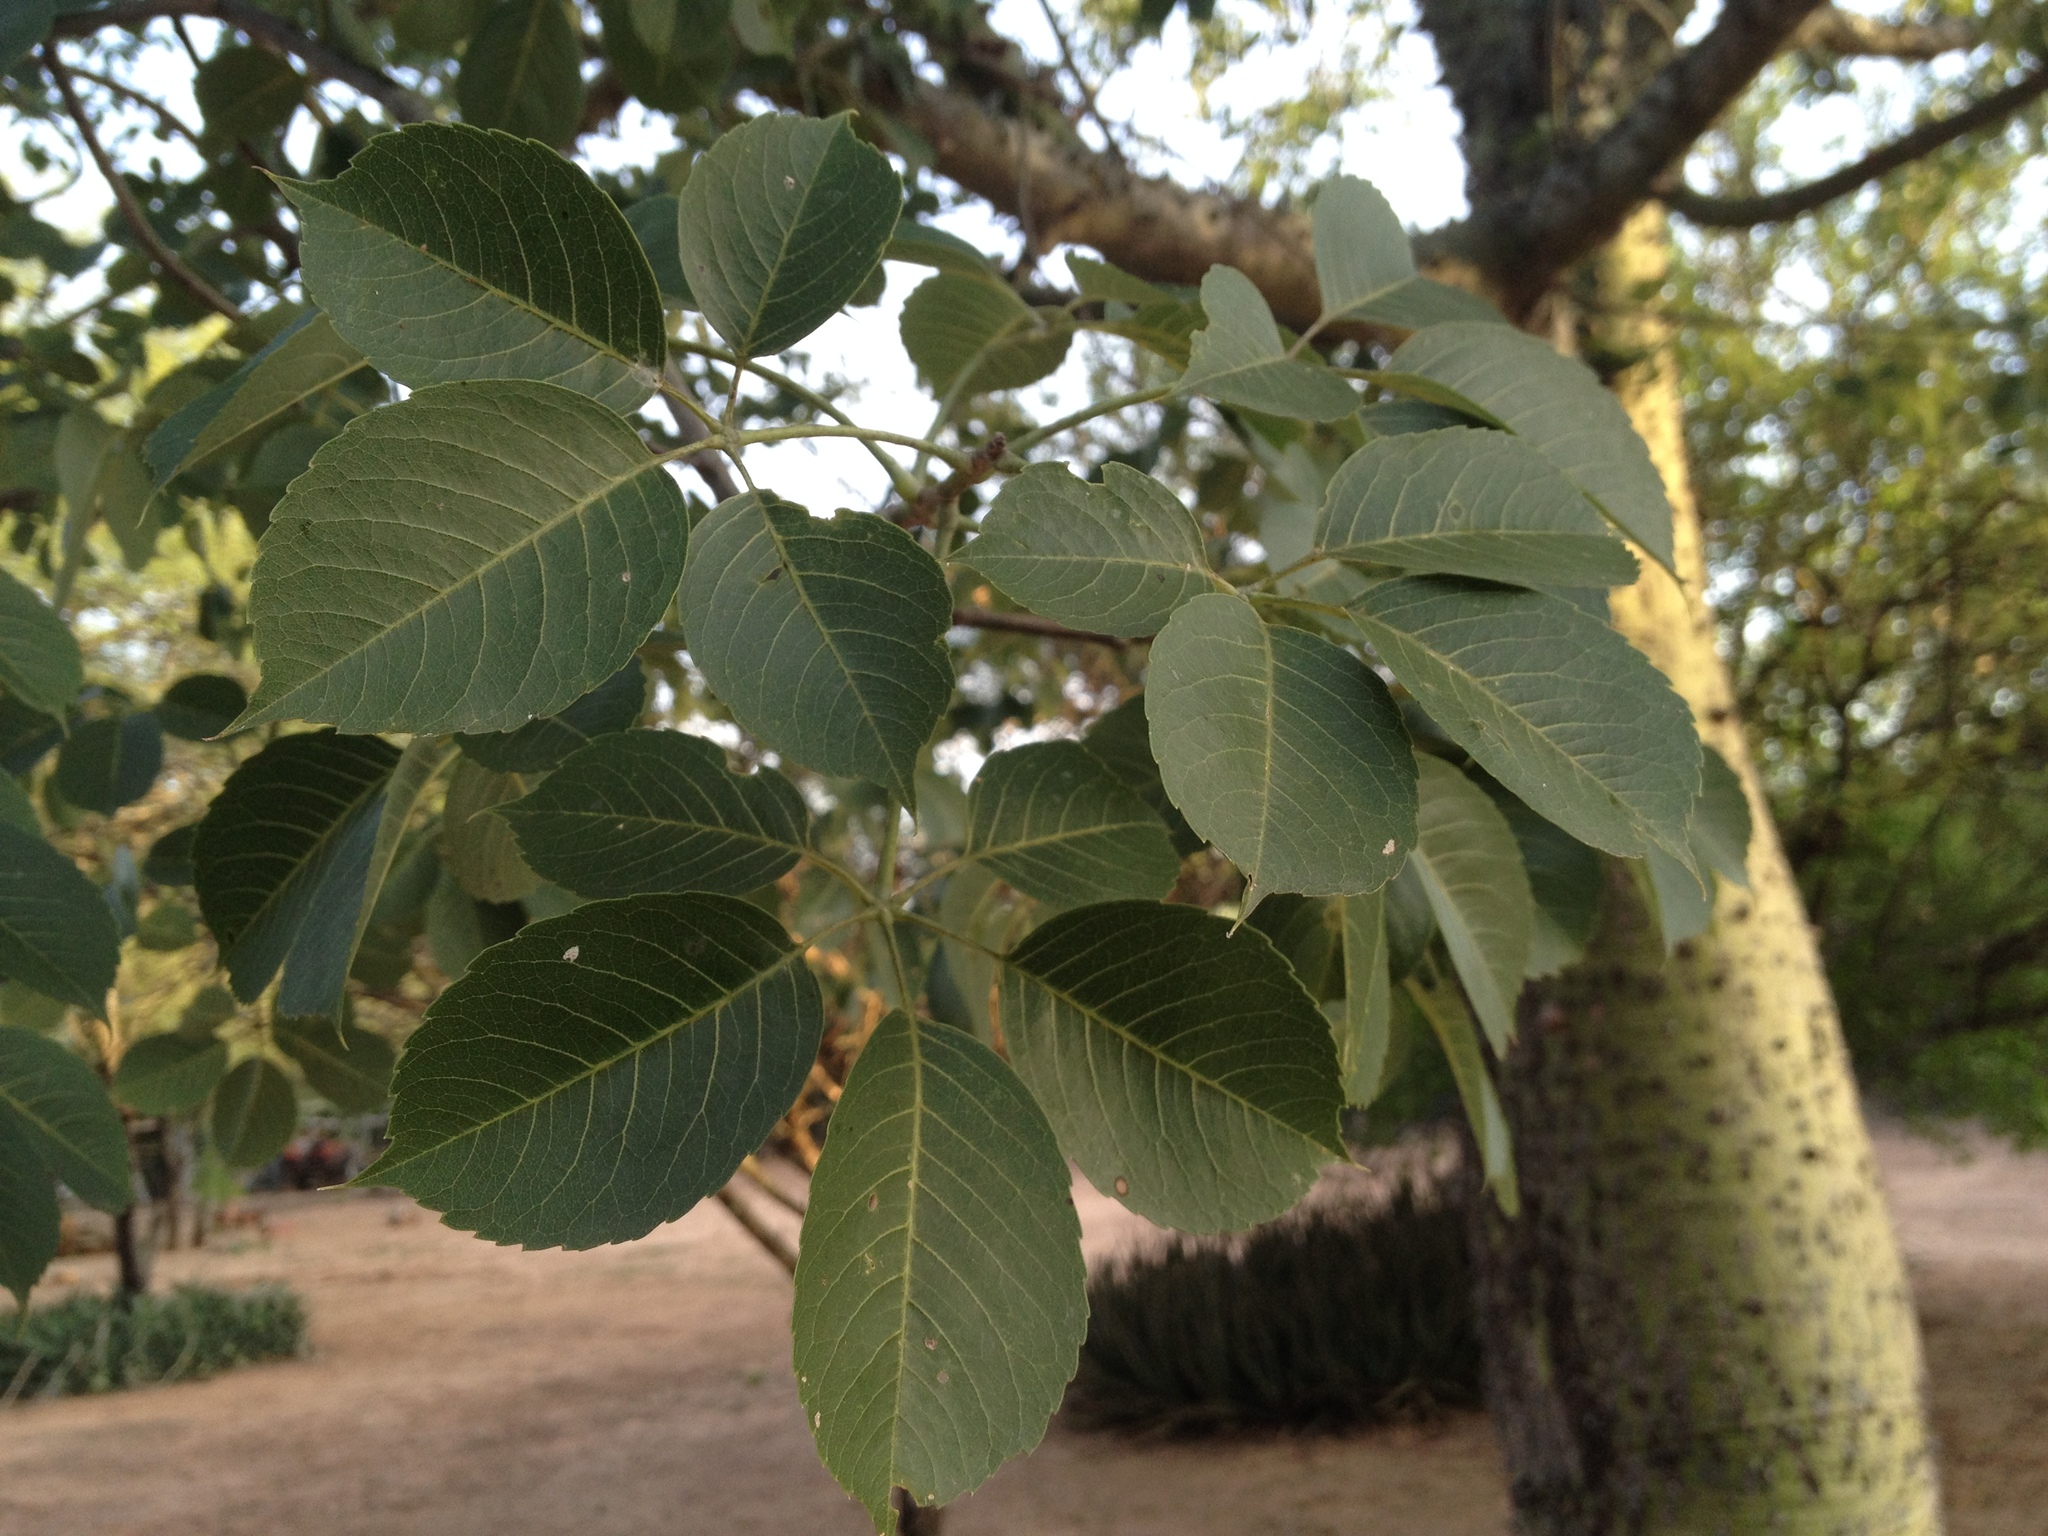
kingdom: Plantae
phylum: Tracheophyta
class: Magnoliopsida
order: Malvales
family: Malvaceae
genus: Ceiba
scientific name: Ceiba chodatii
